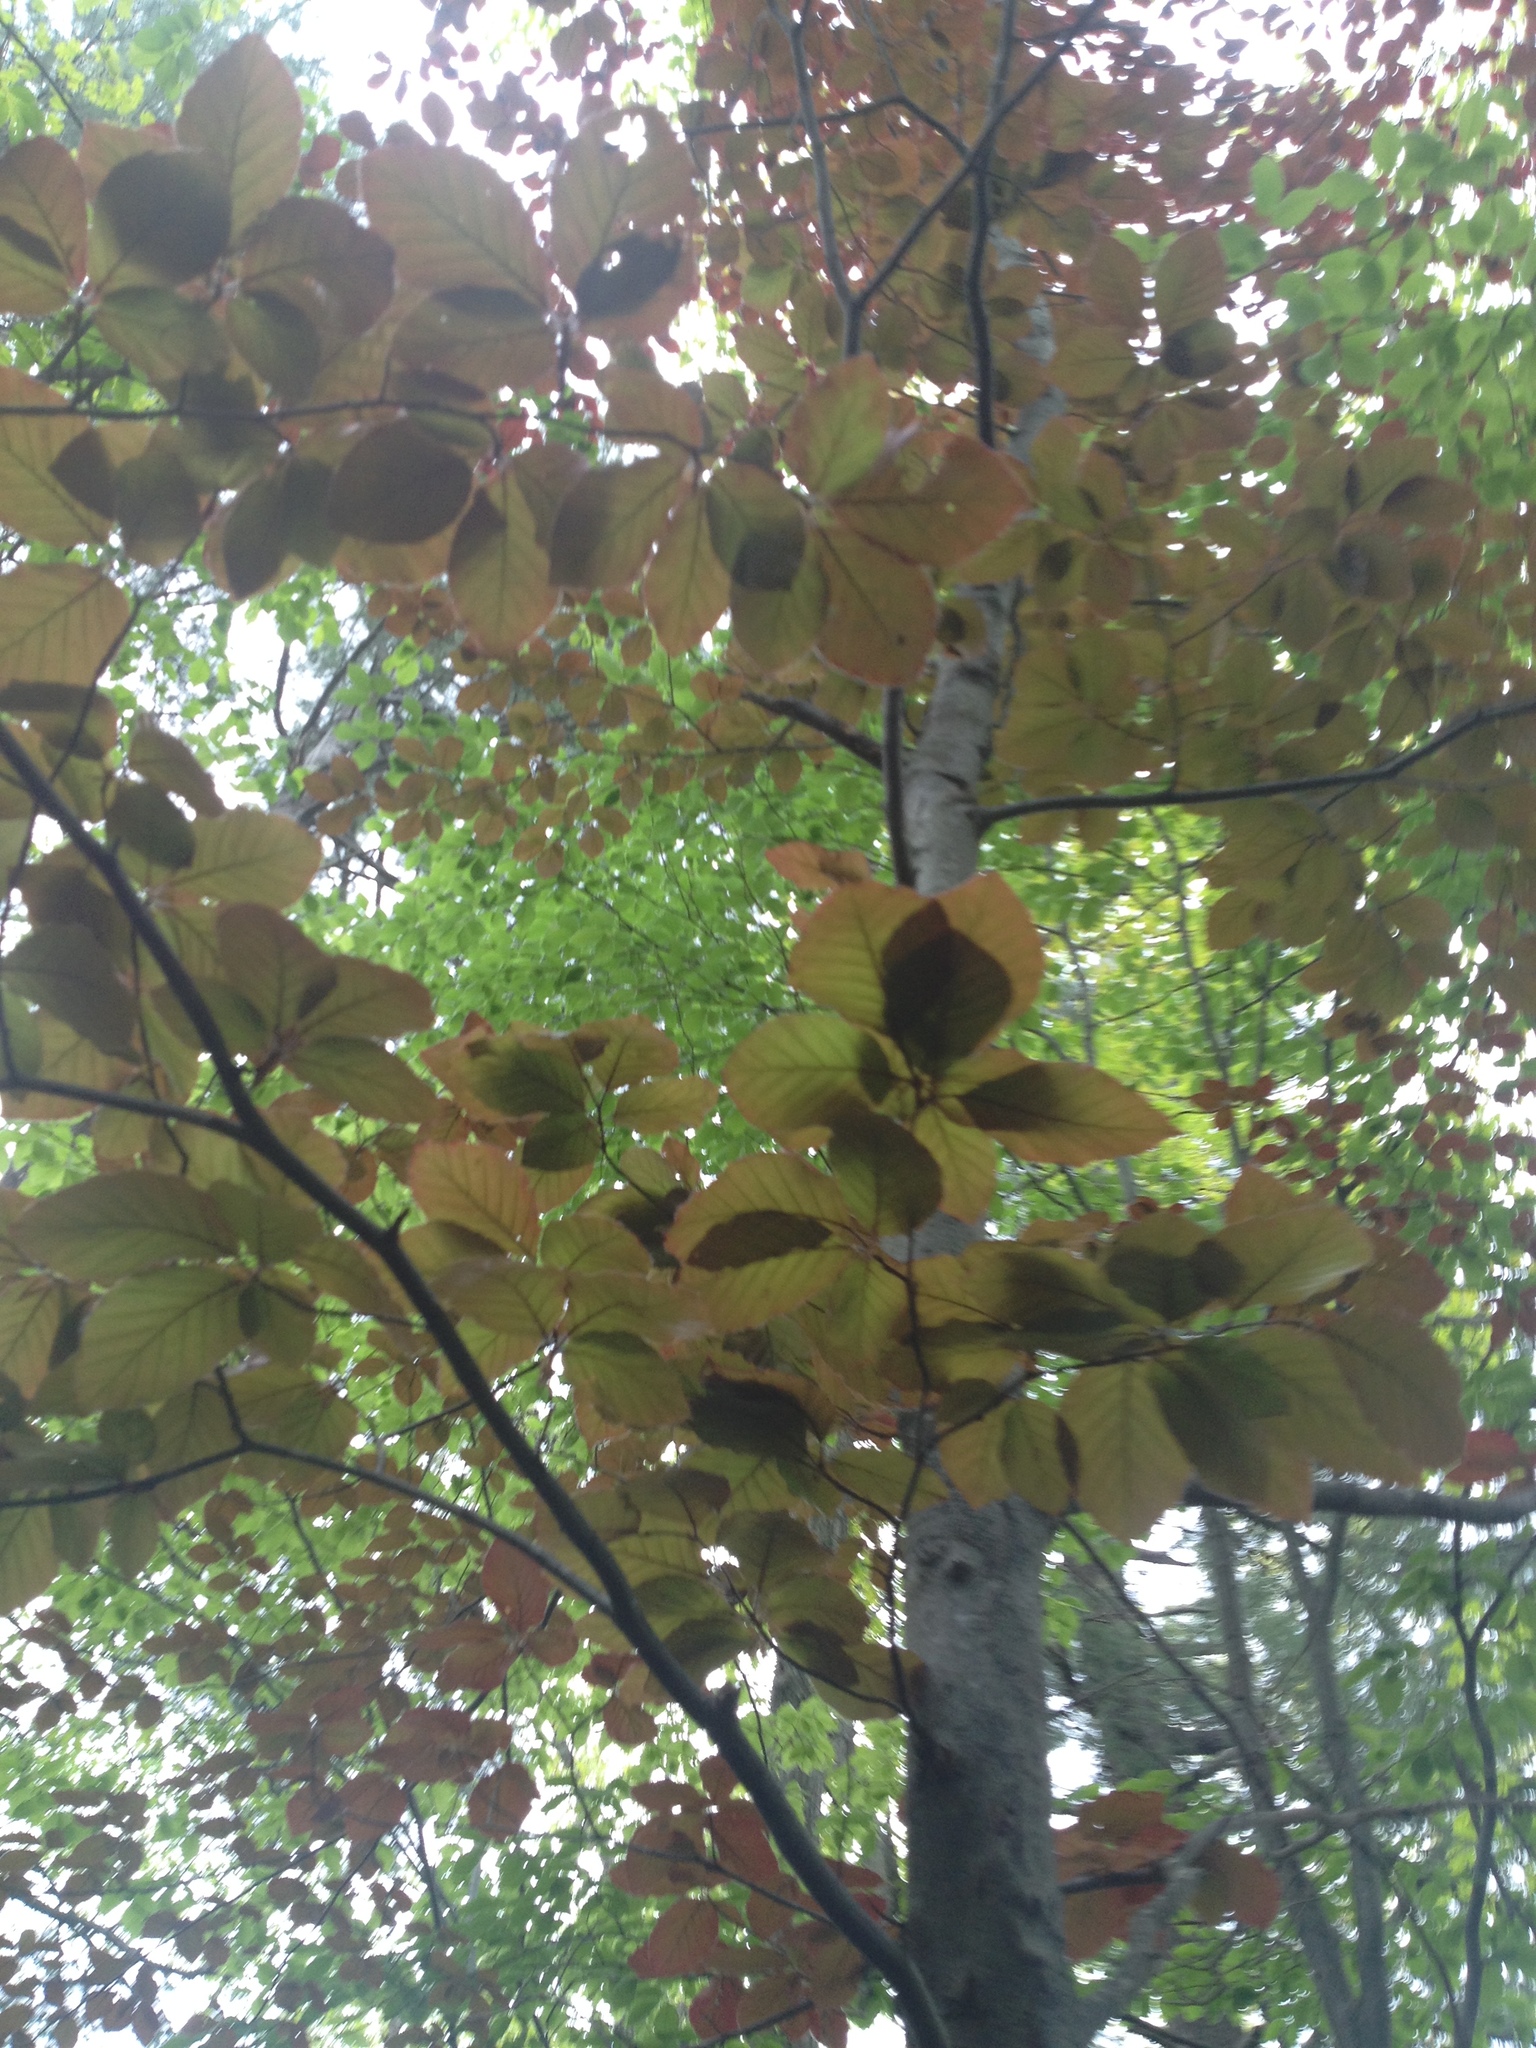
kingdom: Plantae
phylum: Tracheophyta
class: Magnoliopsida
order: Fagales
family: Fagaceae
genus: Fagus
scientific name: Fagus sylvatica
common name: Beech
